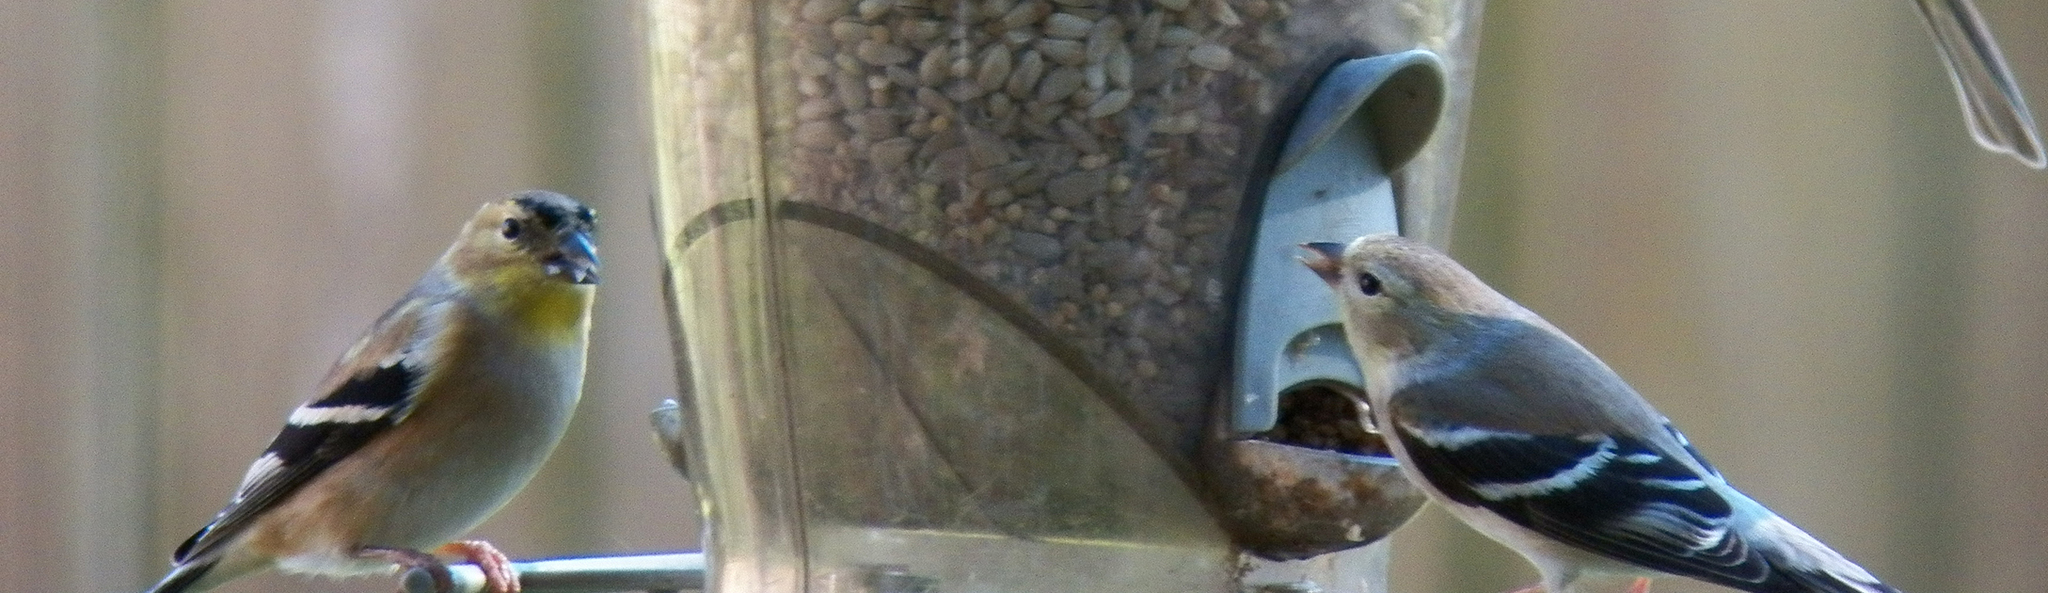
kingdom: Animalia
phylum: Chordata
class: Aves
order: Passeriformes
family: Fringillidae
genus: Spinus
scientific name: Spinus tristis
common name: American goldfinch
